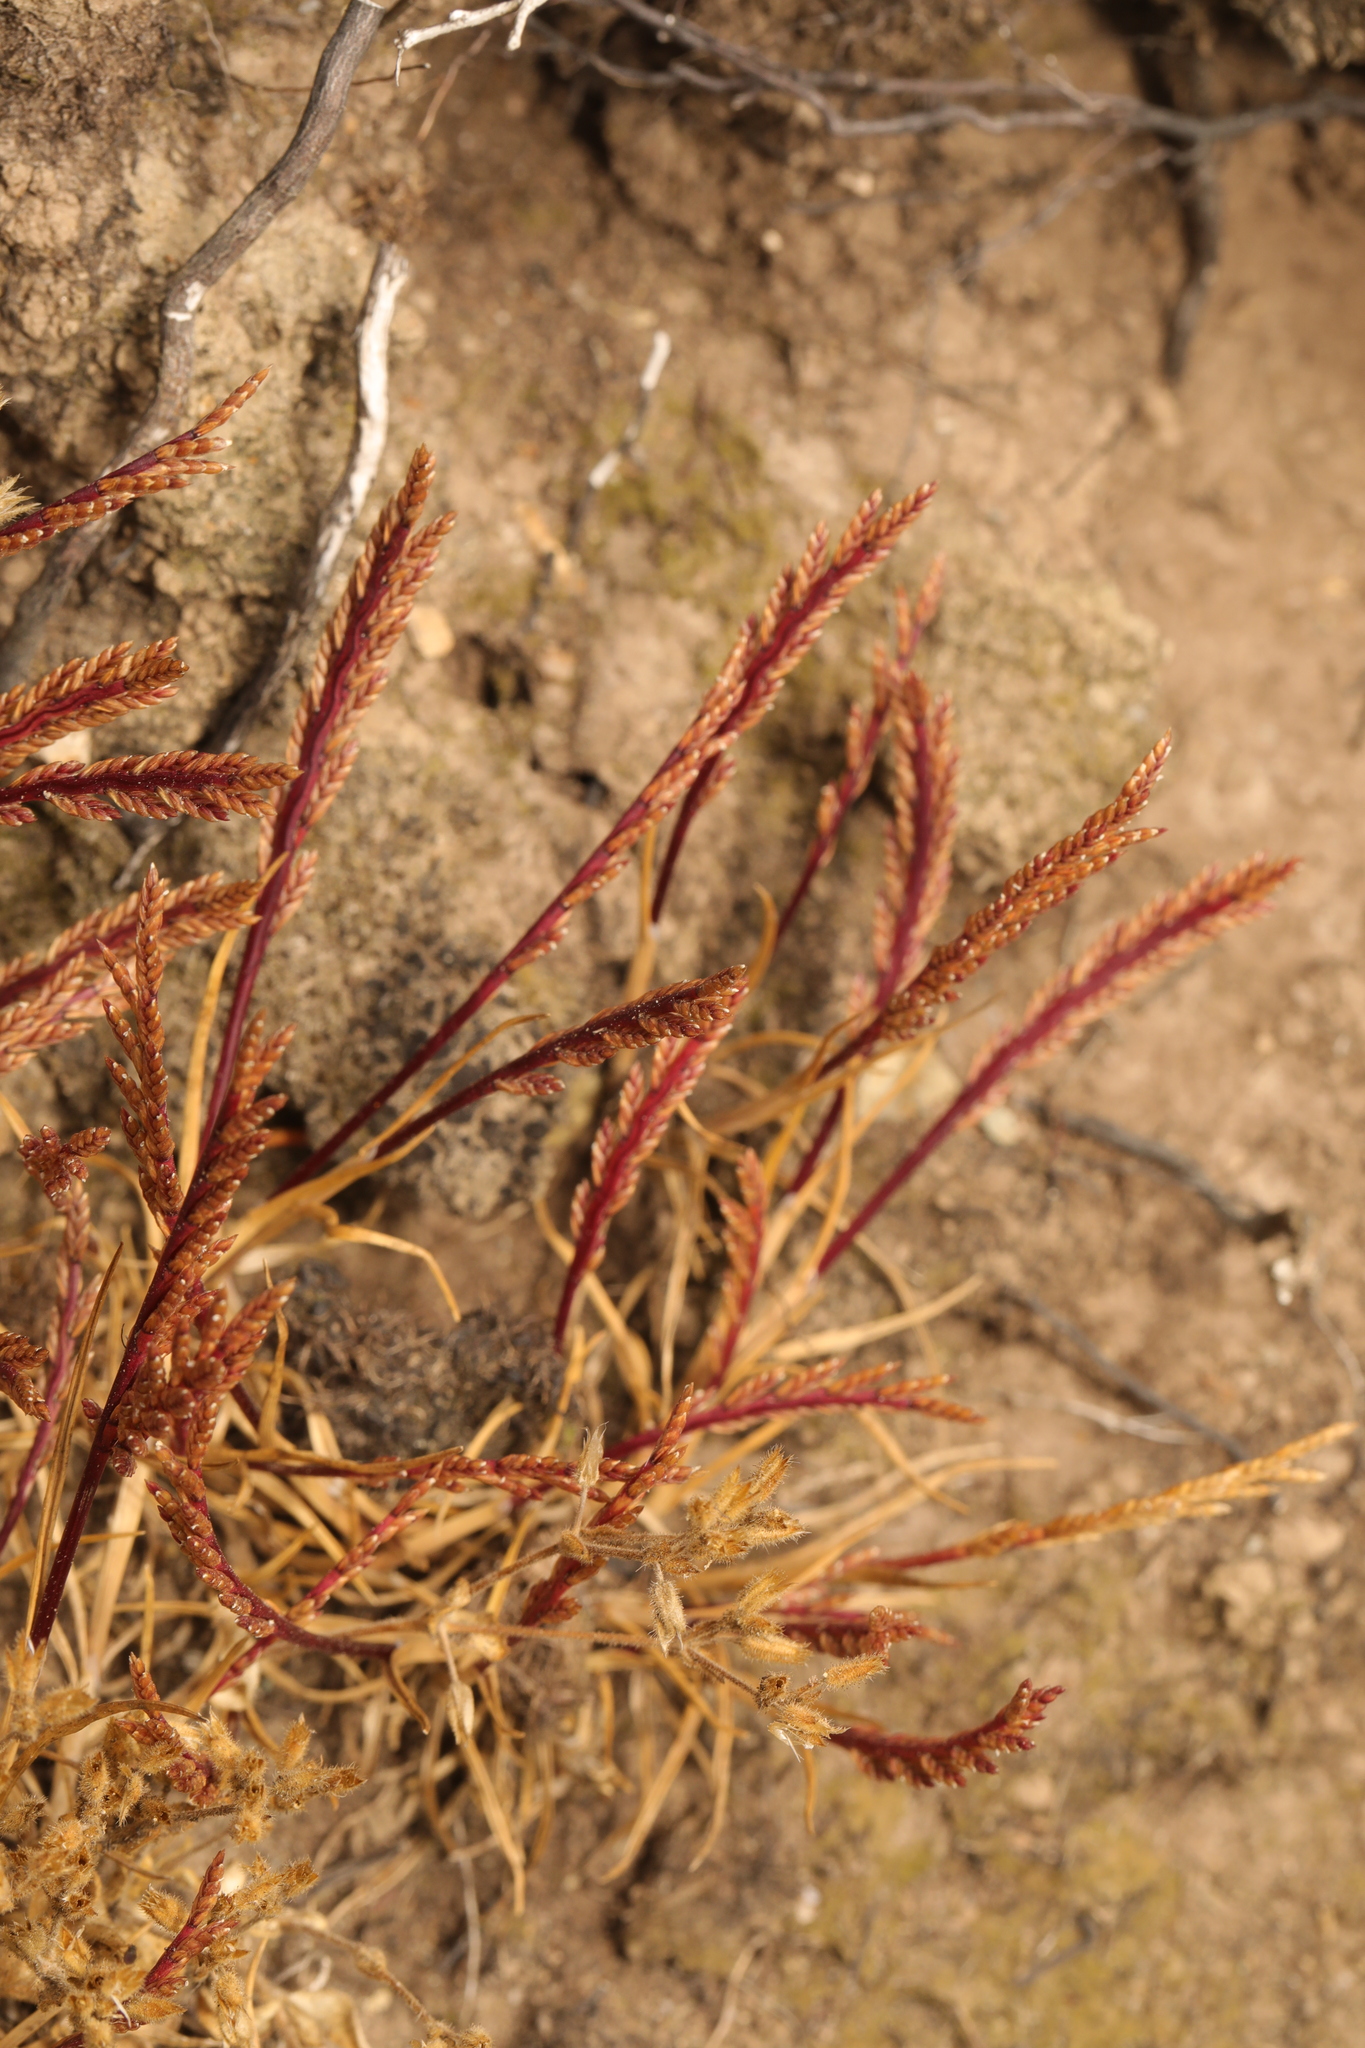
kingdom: Plantae
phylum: Tracheophyta
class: Liliopsida
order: Poales
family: Poaceae
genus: Catapodium
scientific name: Catapodium marinum
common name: Sea fern-grass
